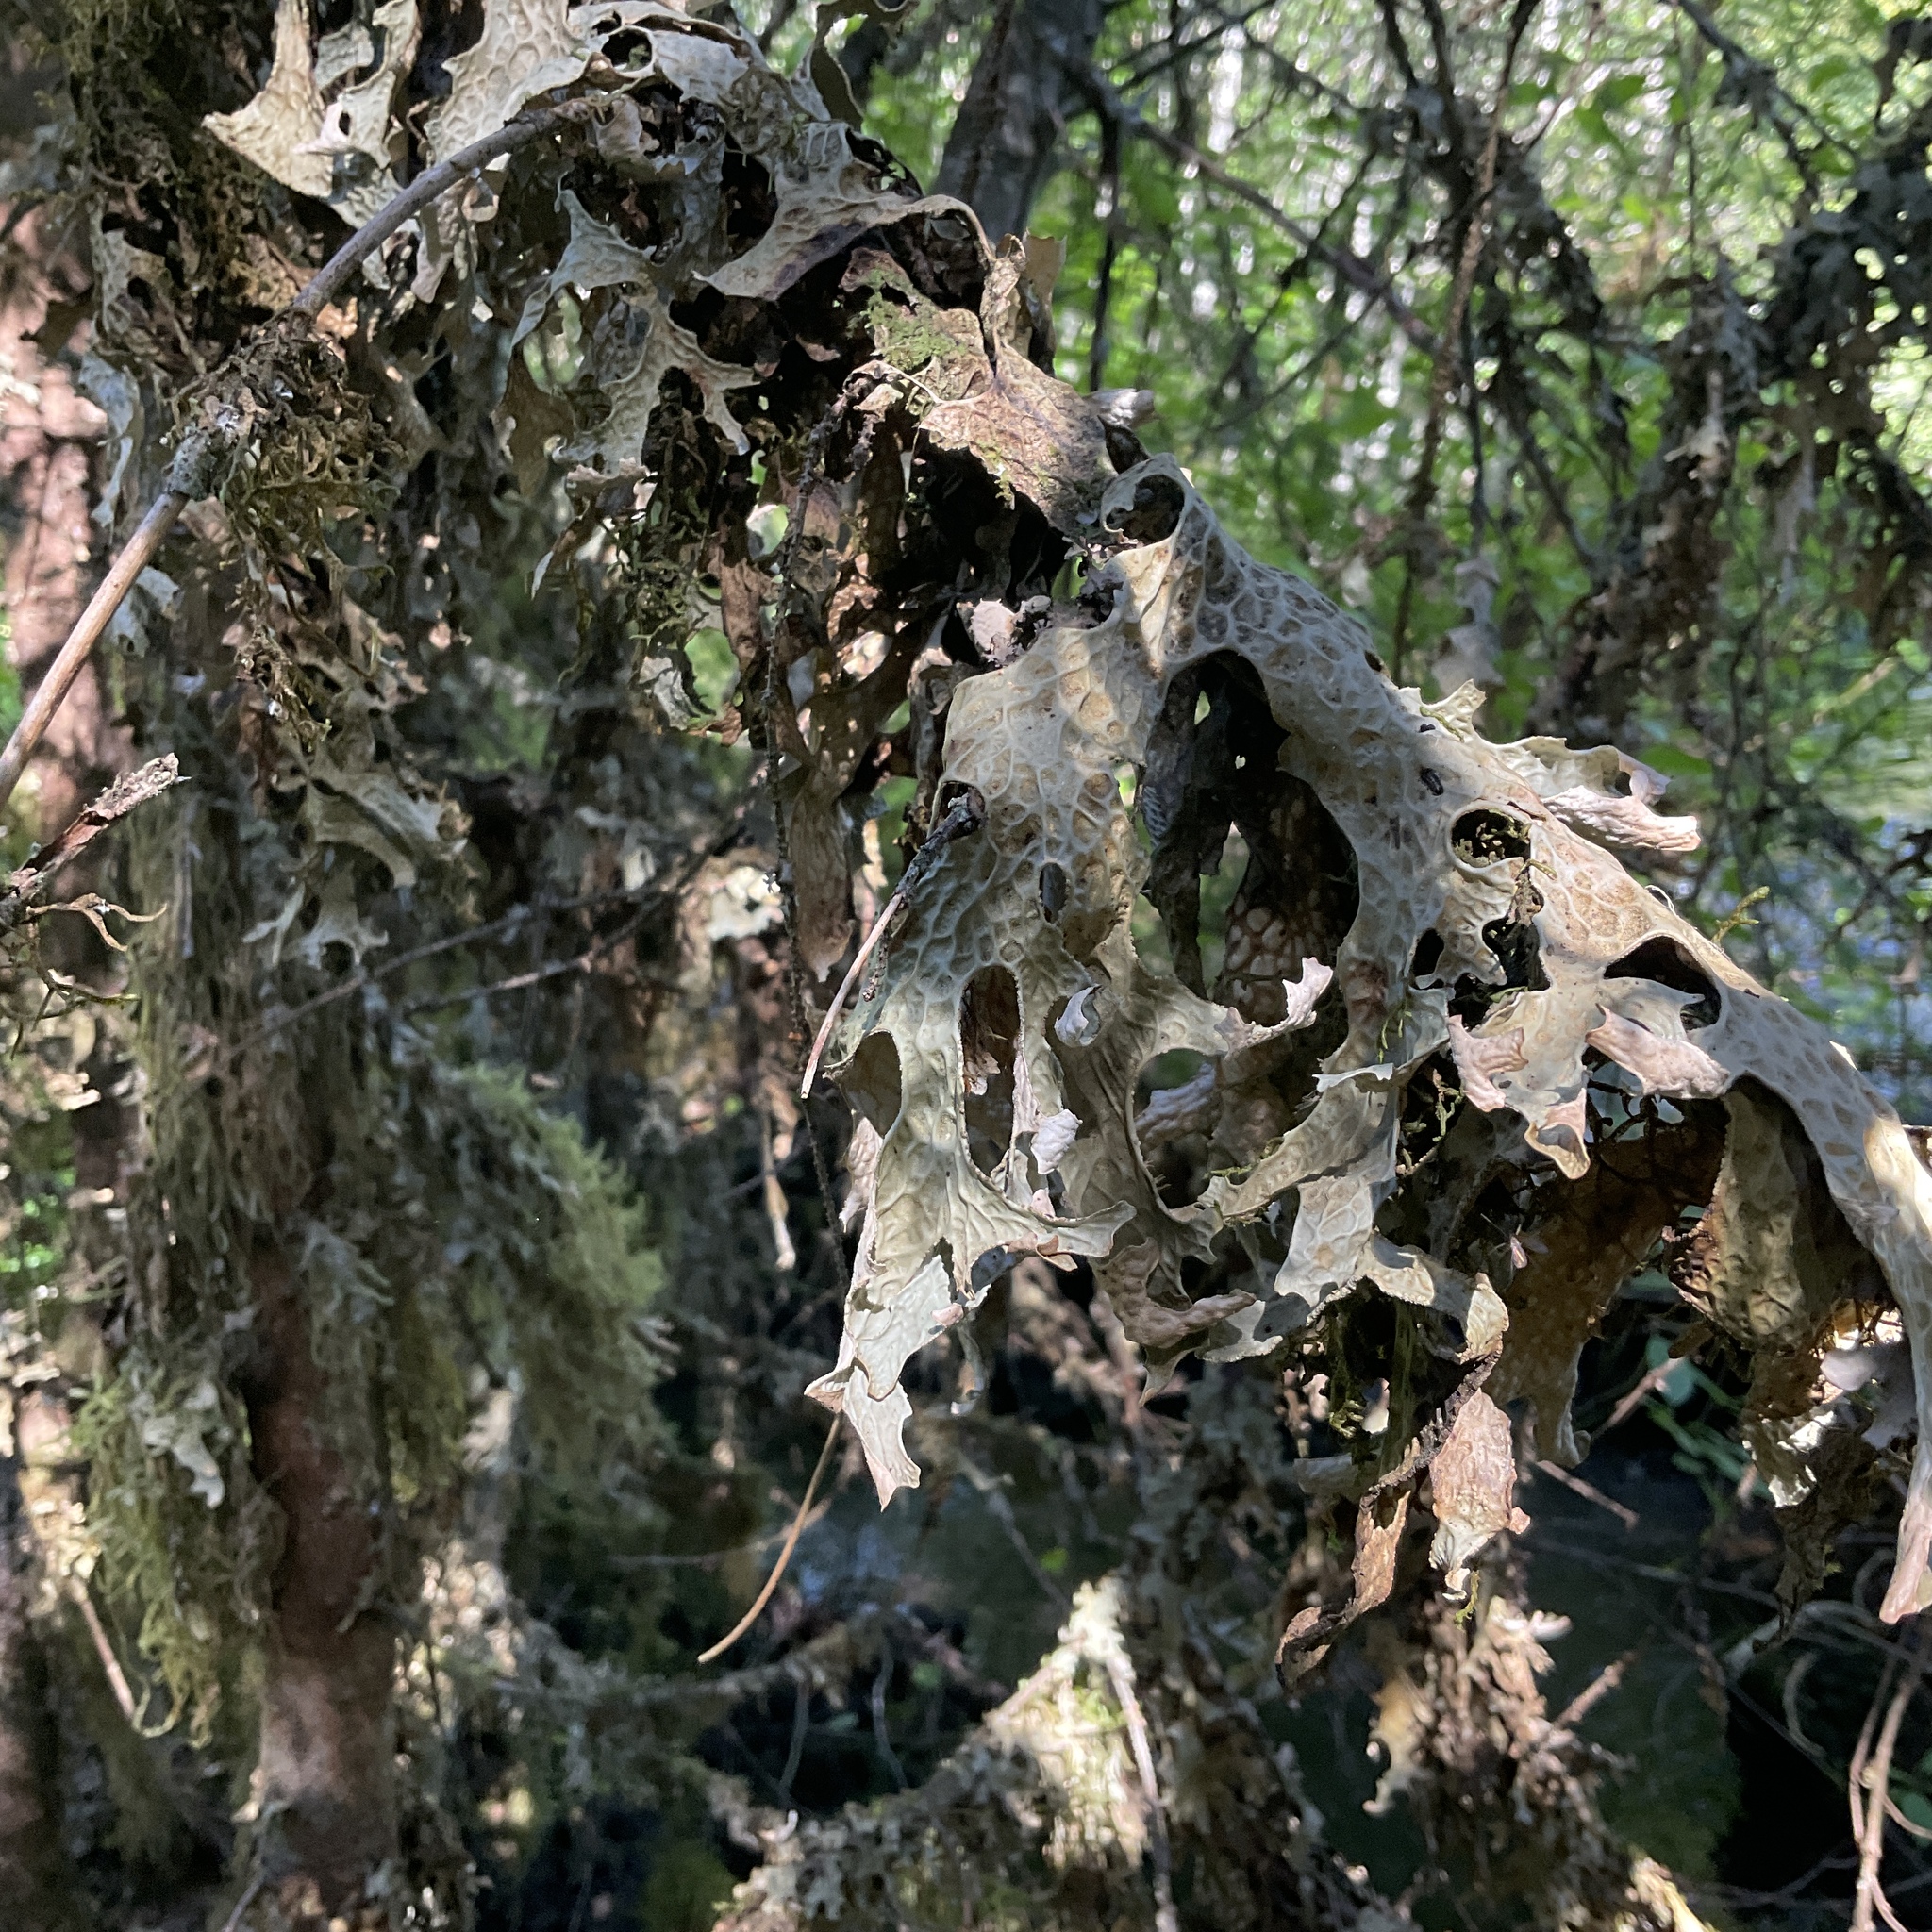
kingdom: Fungi
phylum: Ascomycota
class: Lecanoromycetes
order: Peltigerales
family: Lobariaceae
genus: Lobaria
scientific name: Lobaria pulmonaria
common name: Lungwort
